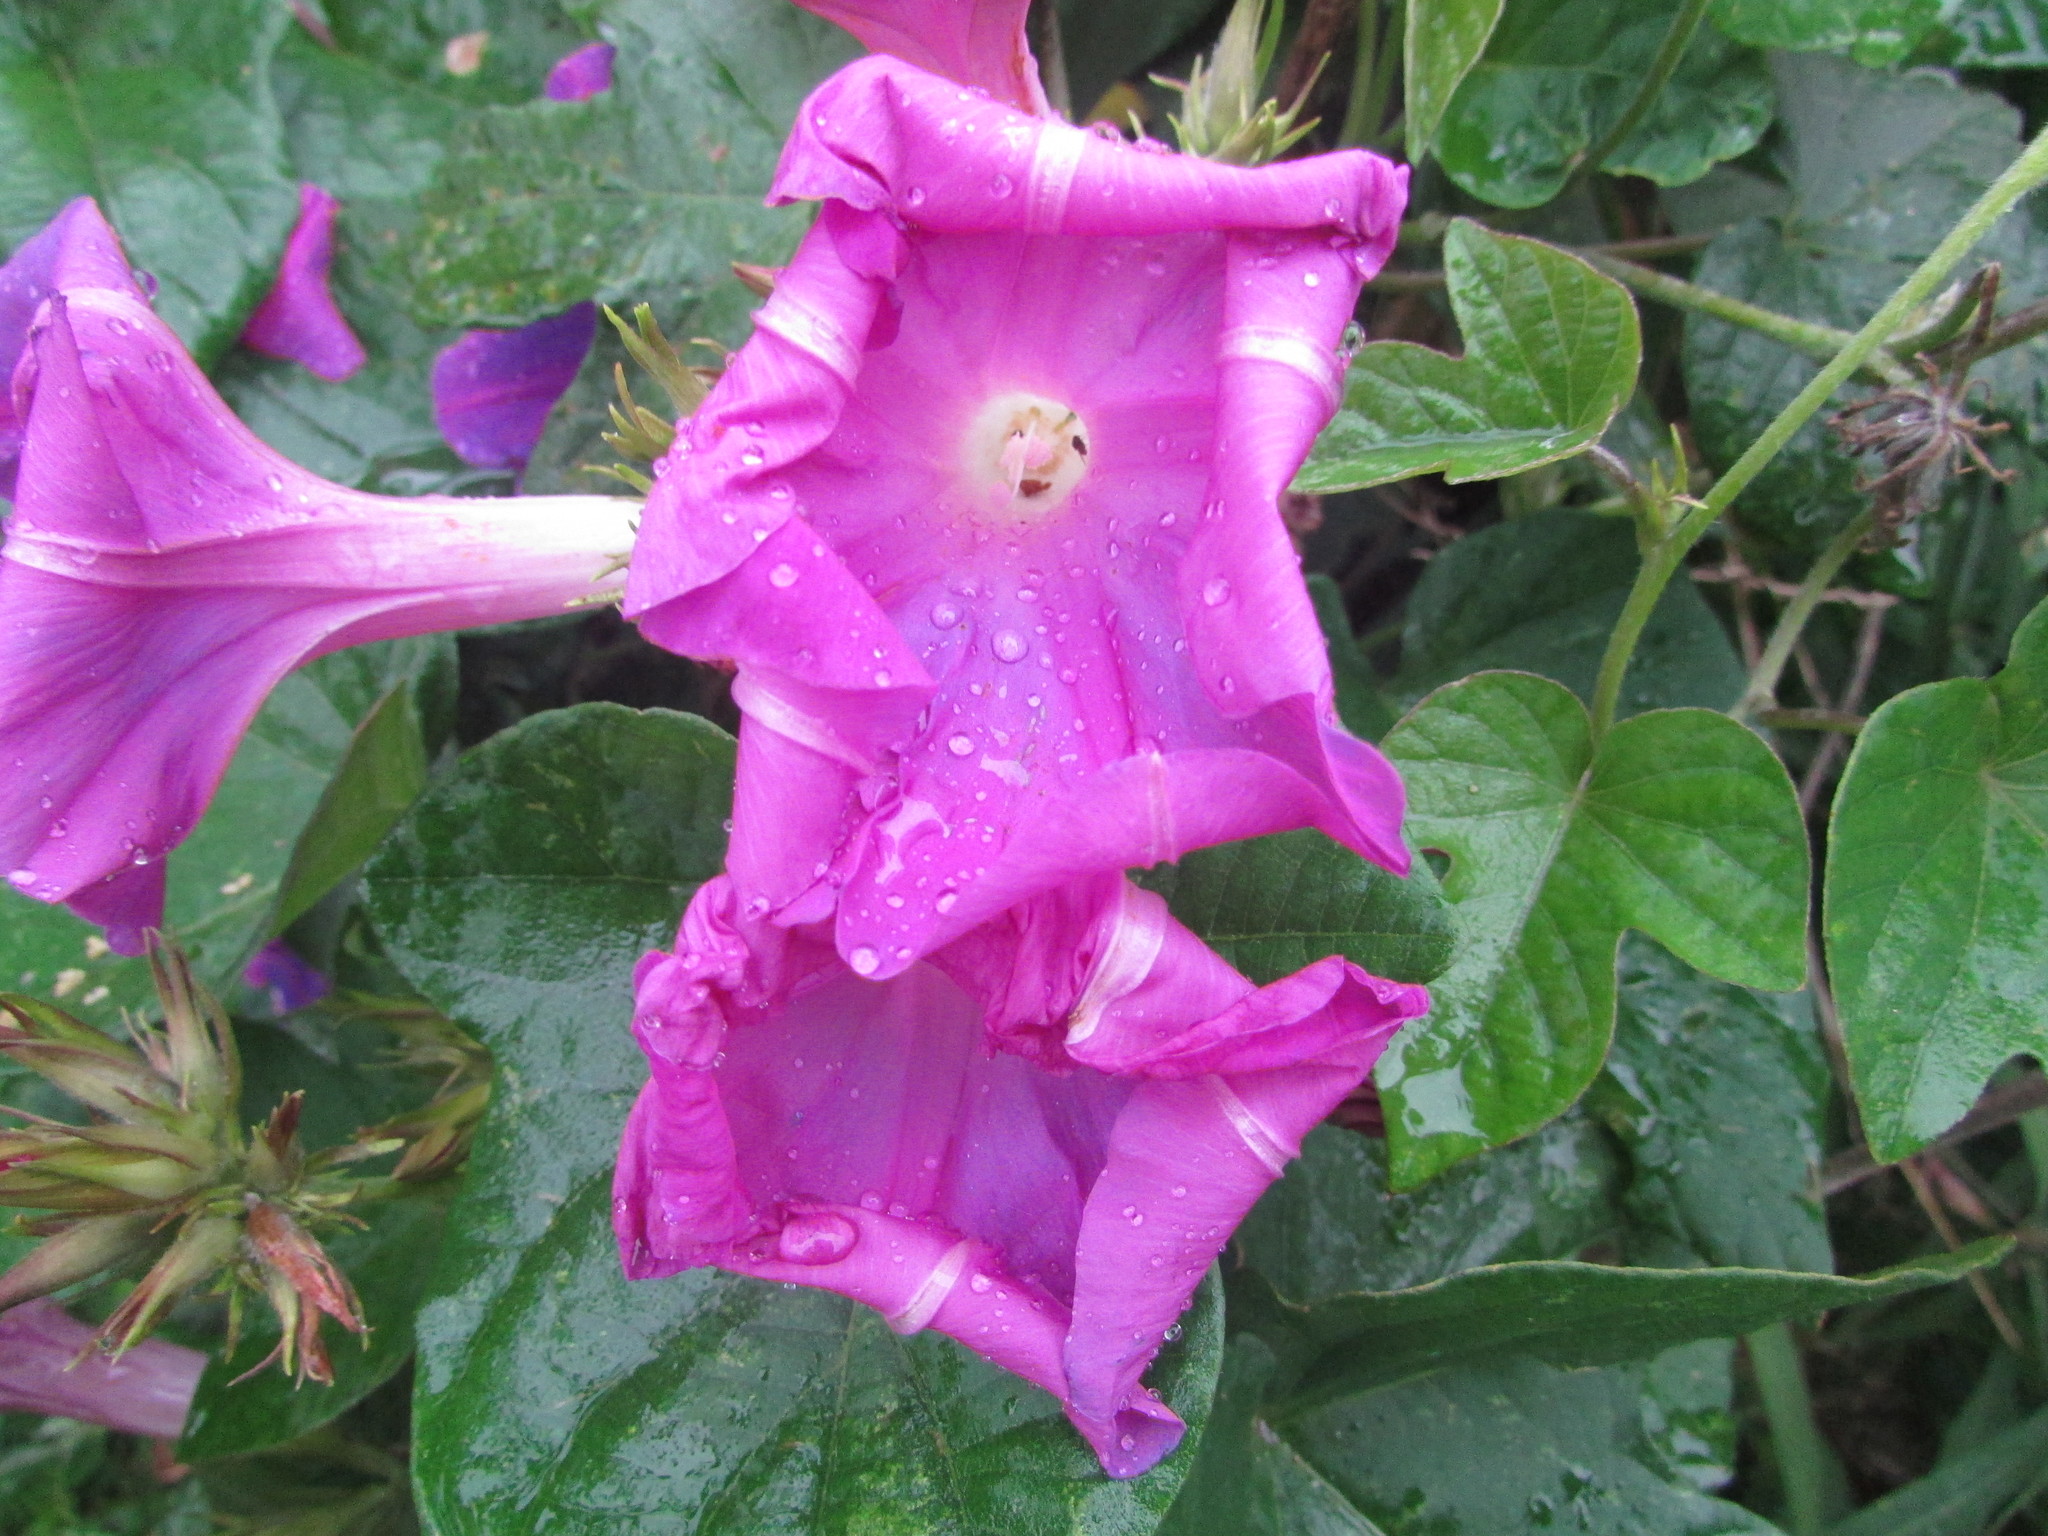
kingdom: Plantae
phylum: Tracheophyta
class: Magnoliopsida
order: Solanales
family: Convolvulaceae
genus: Ipomoea
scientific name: Ipomoea indica
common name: Blue dawnflower
